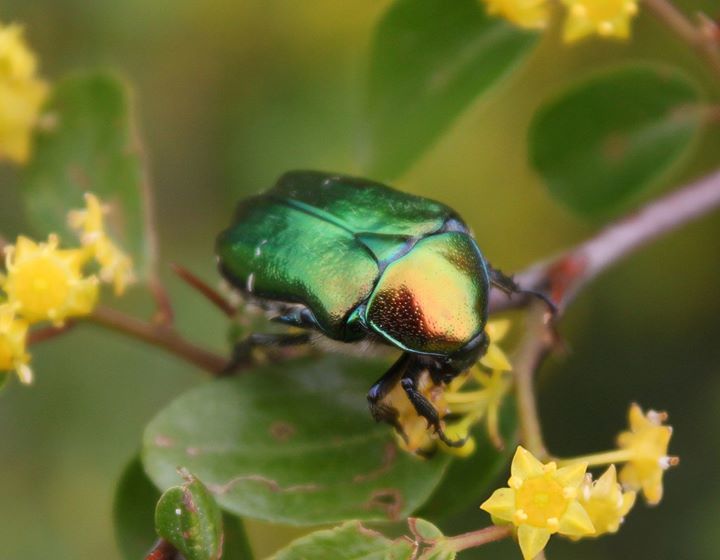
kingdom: Animalia
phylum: Arthropoda
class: Insecta
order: Coleoptera
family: Scarabaeidae
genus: Cetonia
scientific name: Cetonia aurata
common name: Rose chafer
